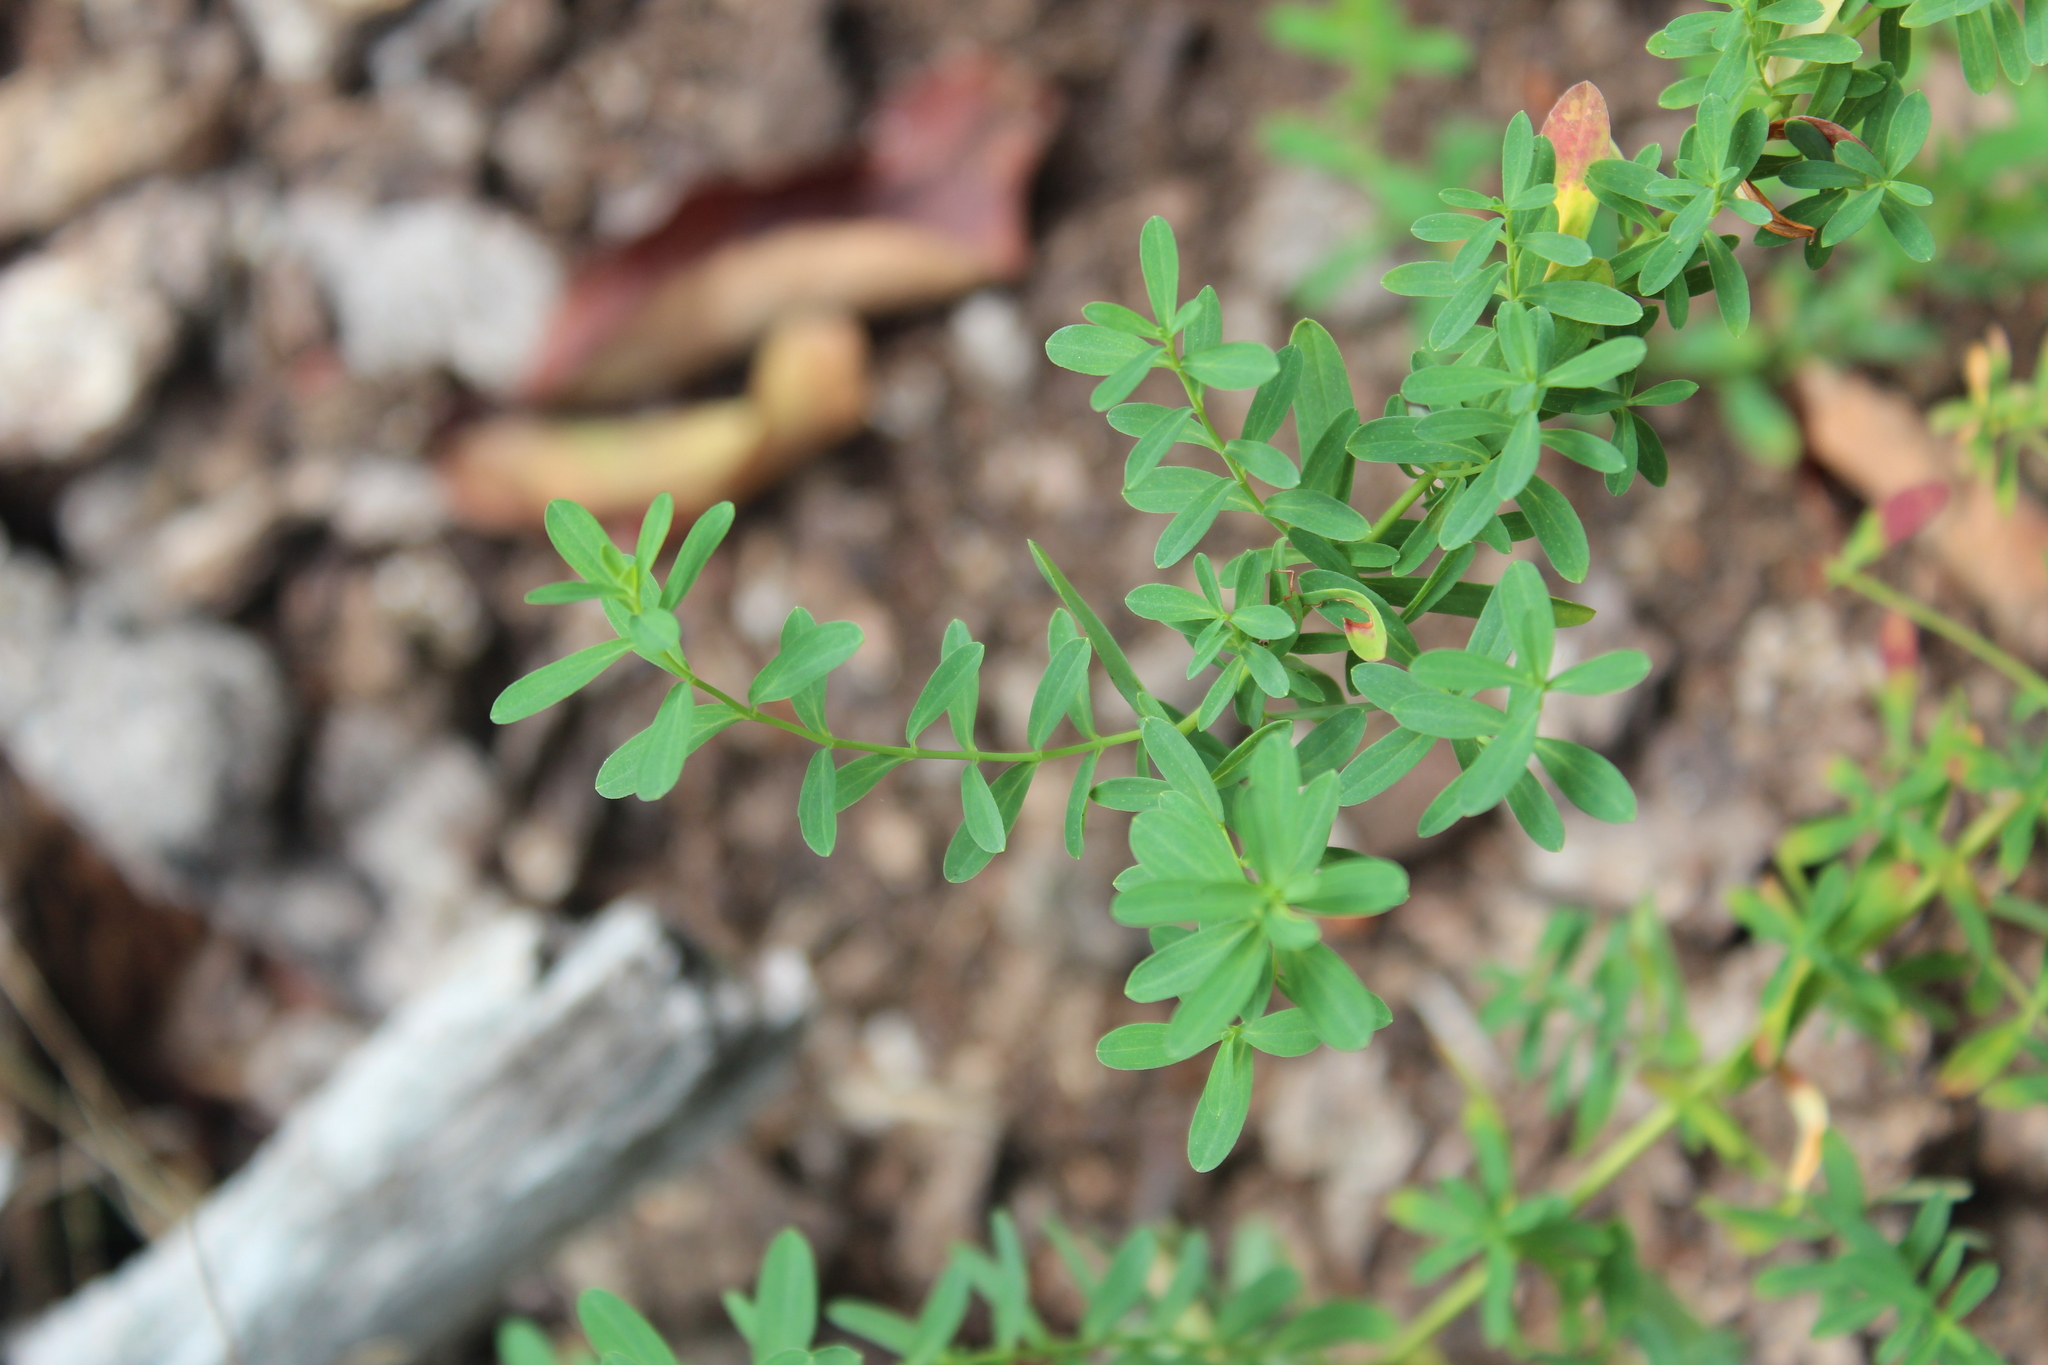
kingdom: Plantae
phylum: Tracheophyta
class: Magnoliopsida
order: Malpighiales
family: Hypericaceae
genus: Hypericum
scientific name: Hypericum perforatum
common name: Common st. johnswort
